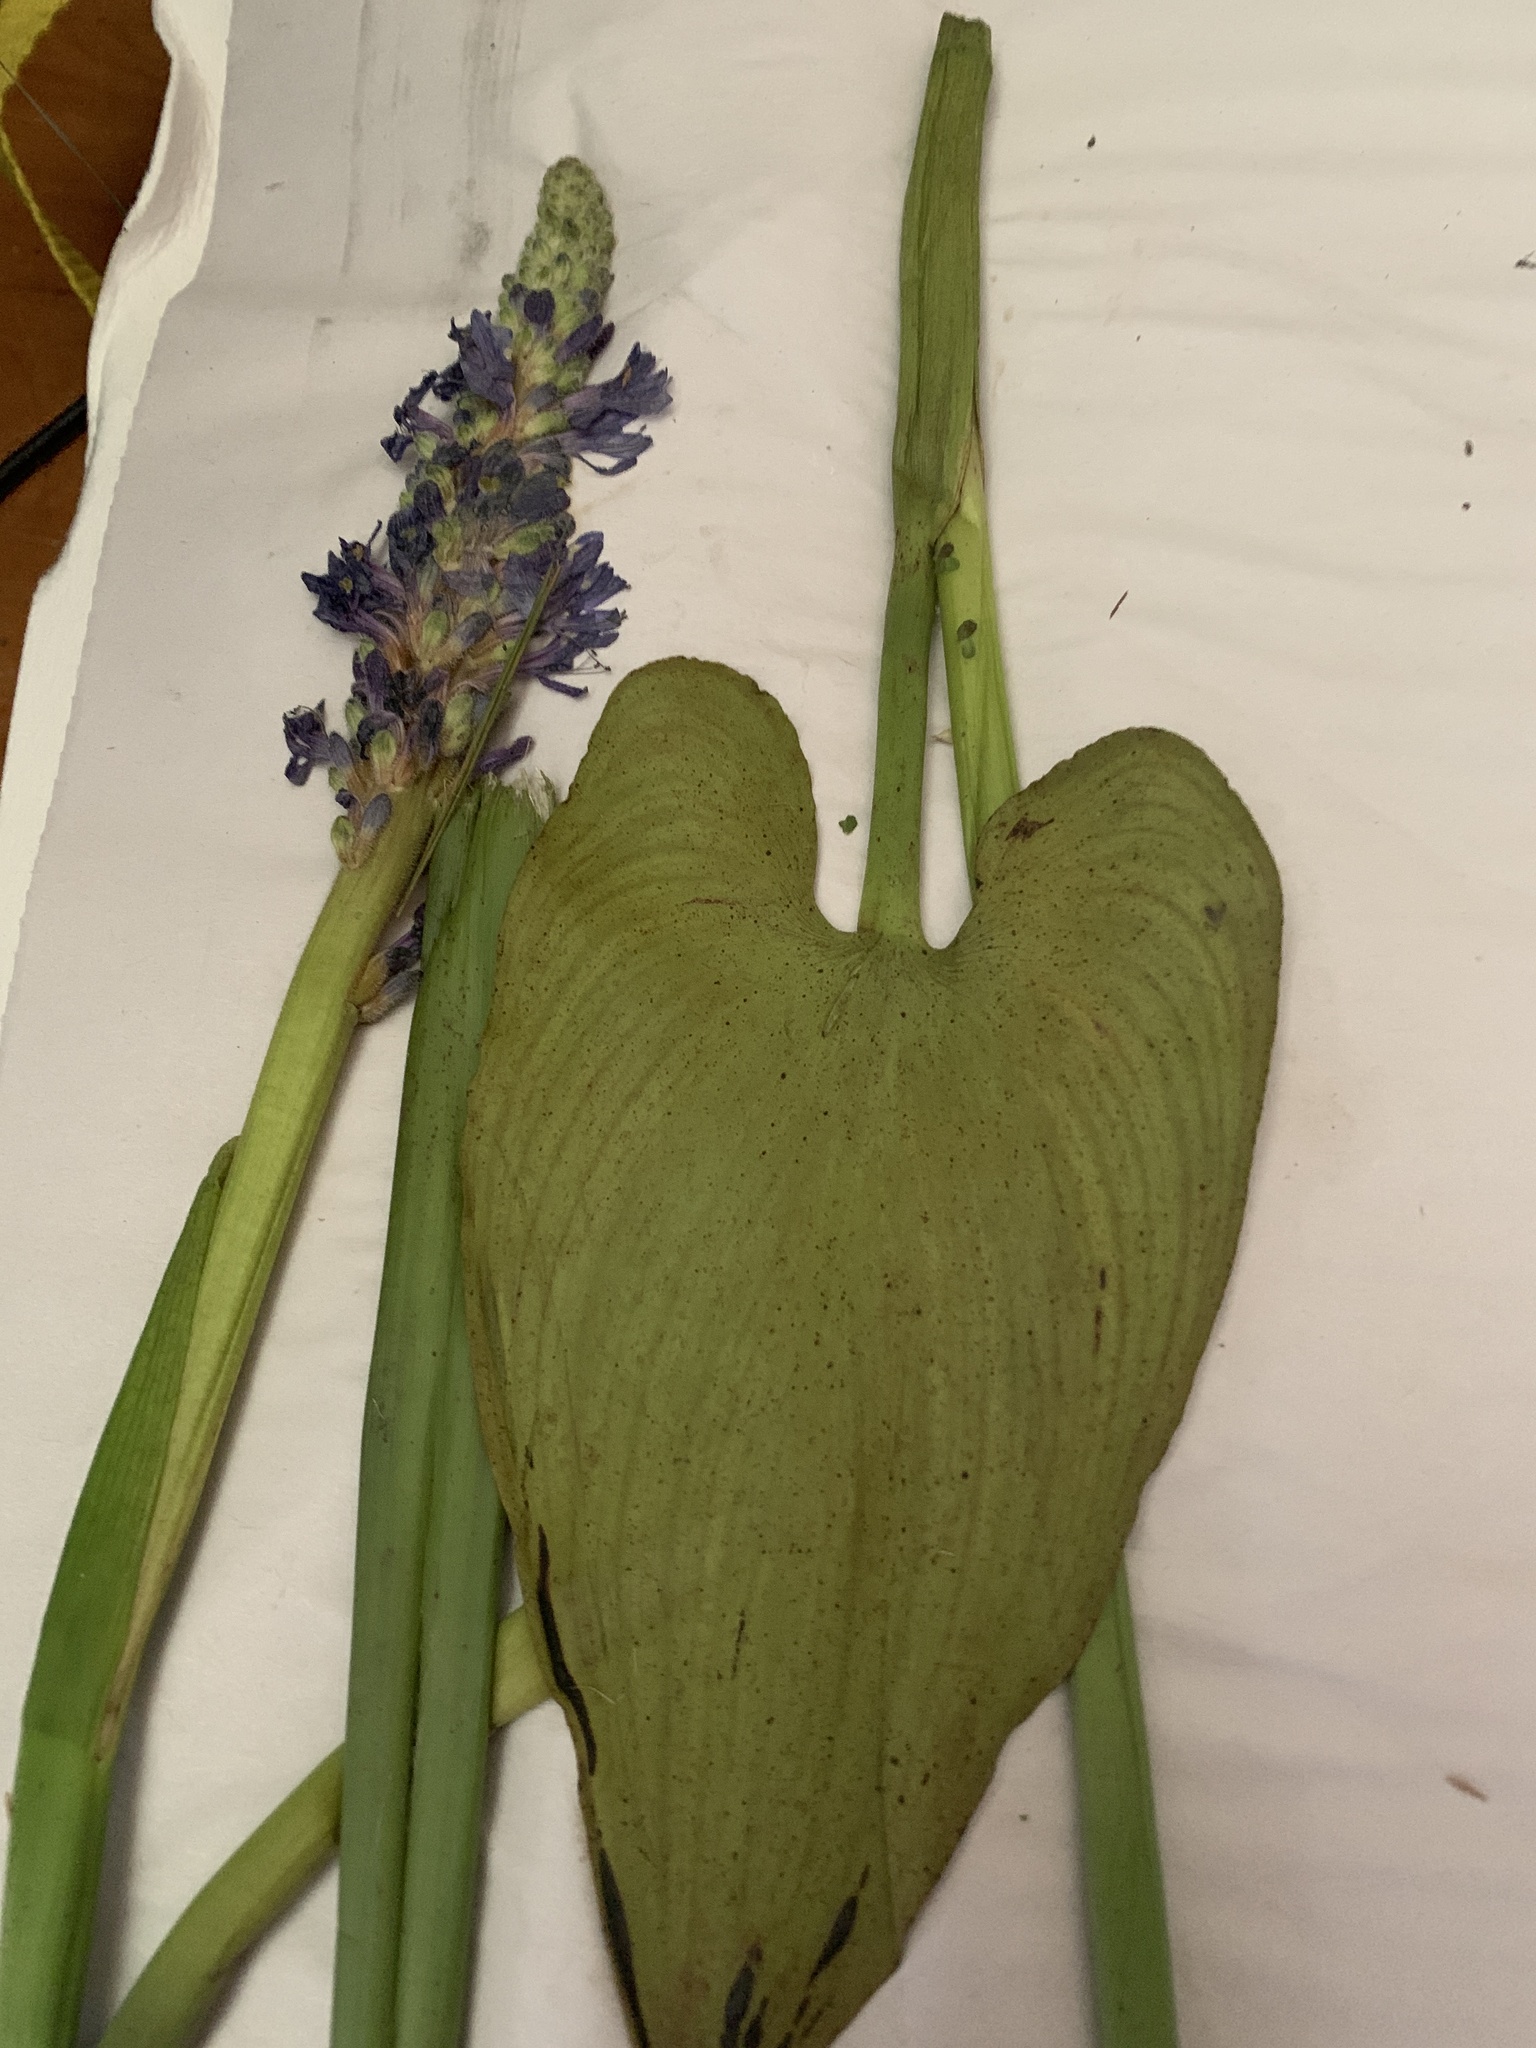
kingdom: Plantae
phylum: Tracheophyta
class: Liliopsida
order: Commelinales
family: Pontederiaceae
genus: Pontederia
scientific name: Pontederia cordata
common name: Pickerelweed
